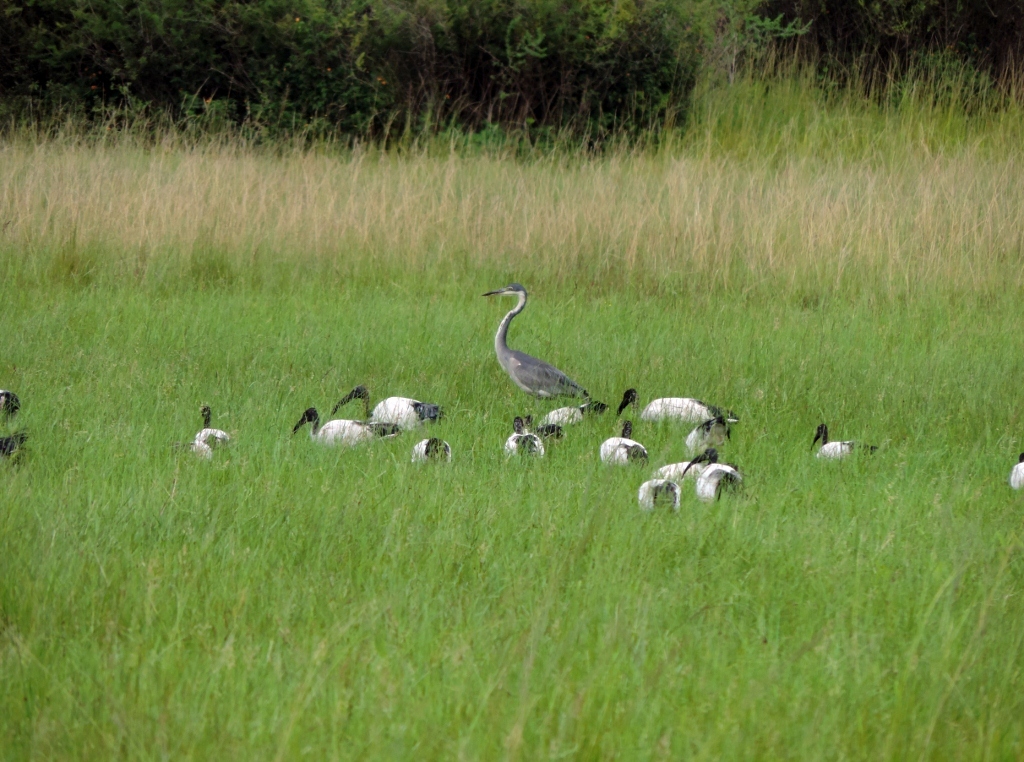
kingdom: Animalia
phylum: Chordata
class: Aves
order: Pelecaniformes
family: Threskiornithidae
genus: Threskiornis
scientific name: Threskiornis aethiopicus
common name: Sacred ibis
